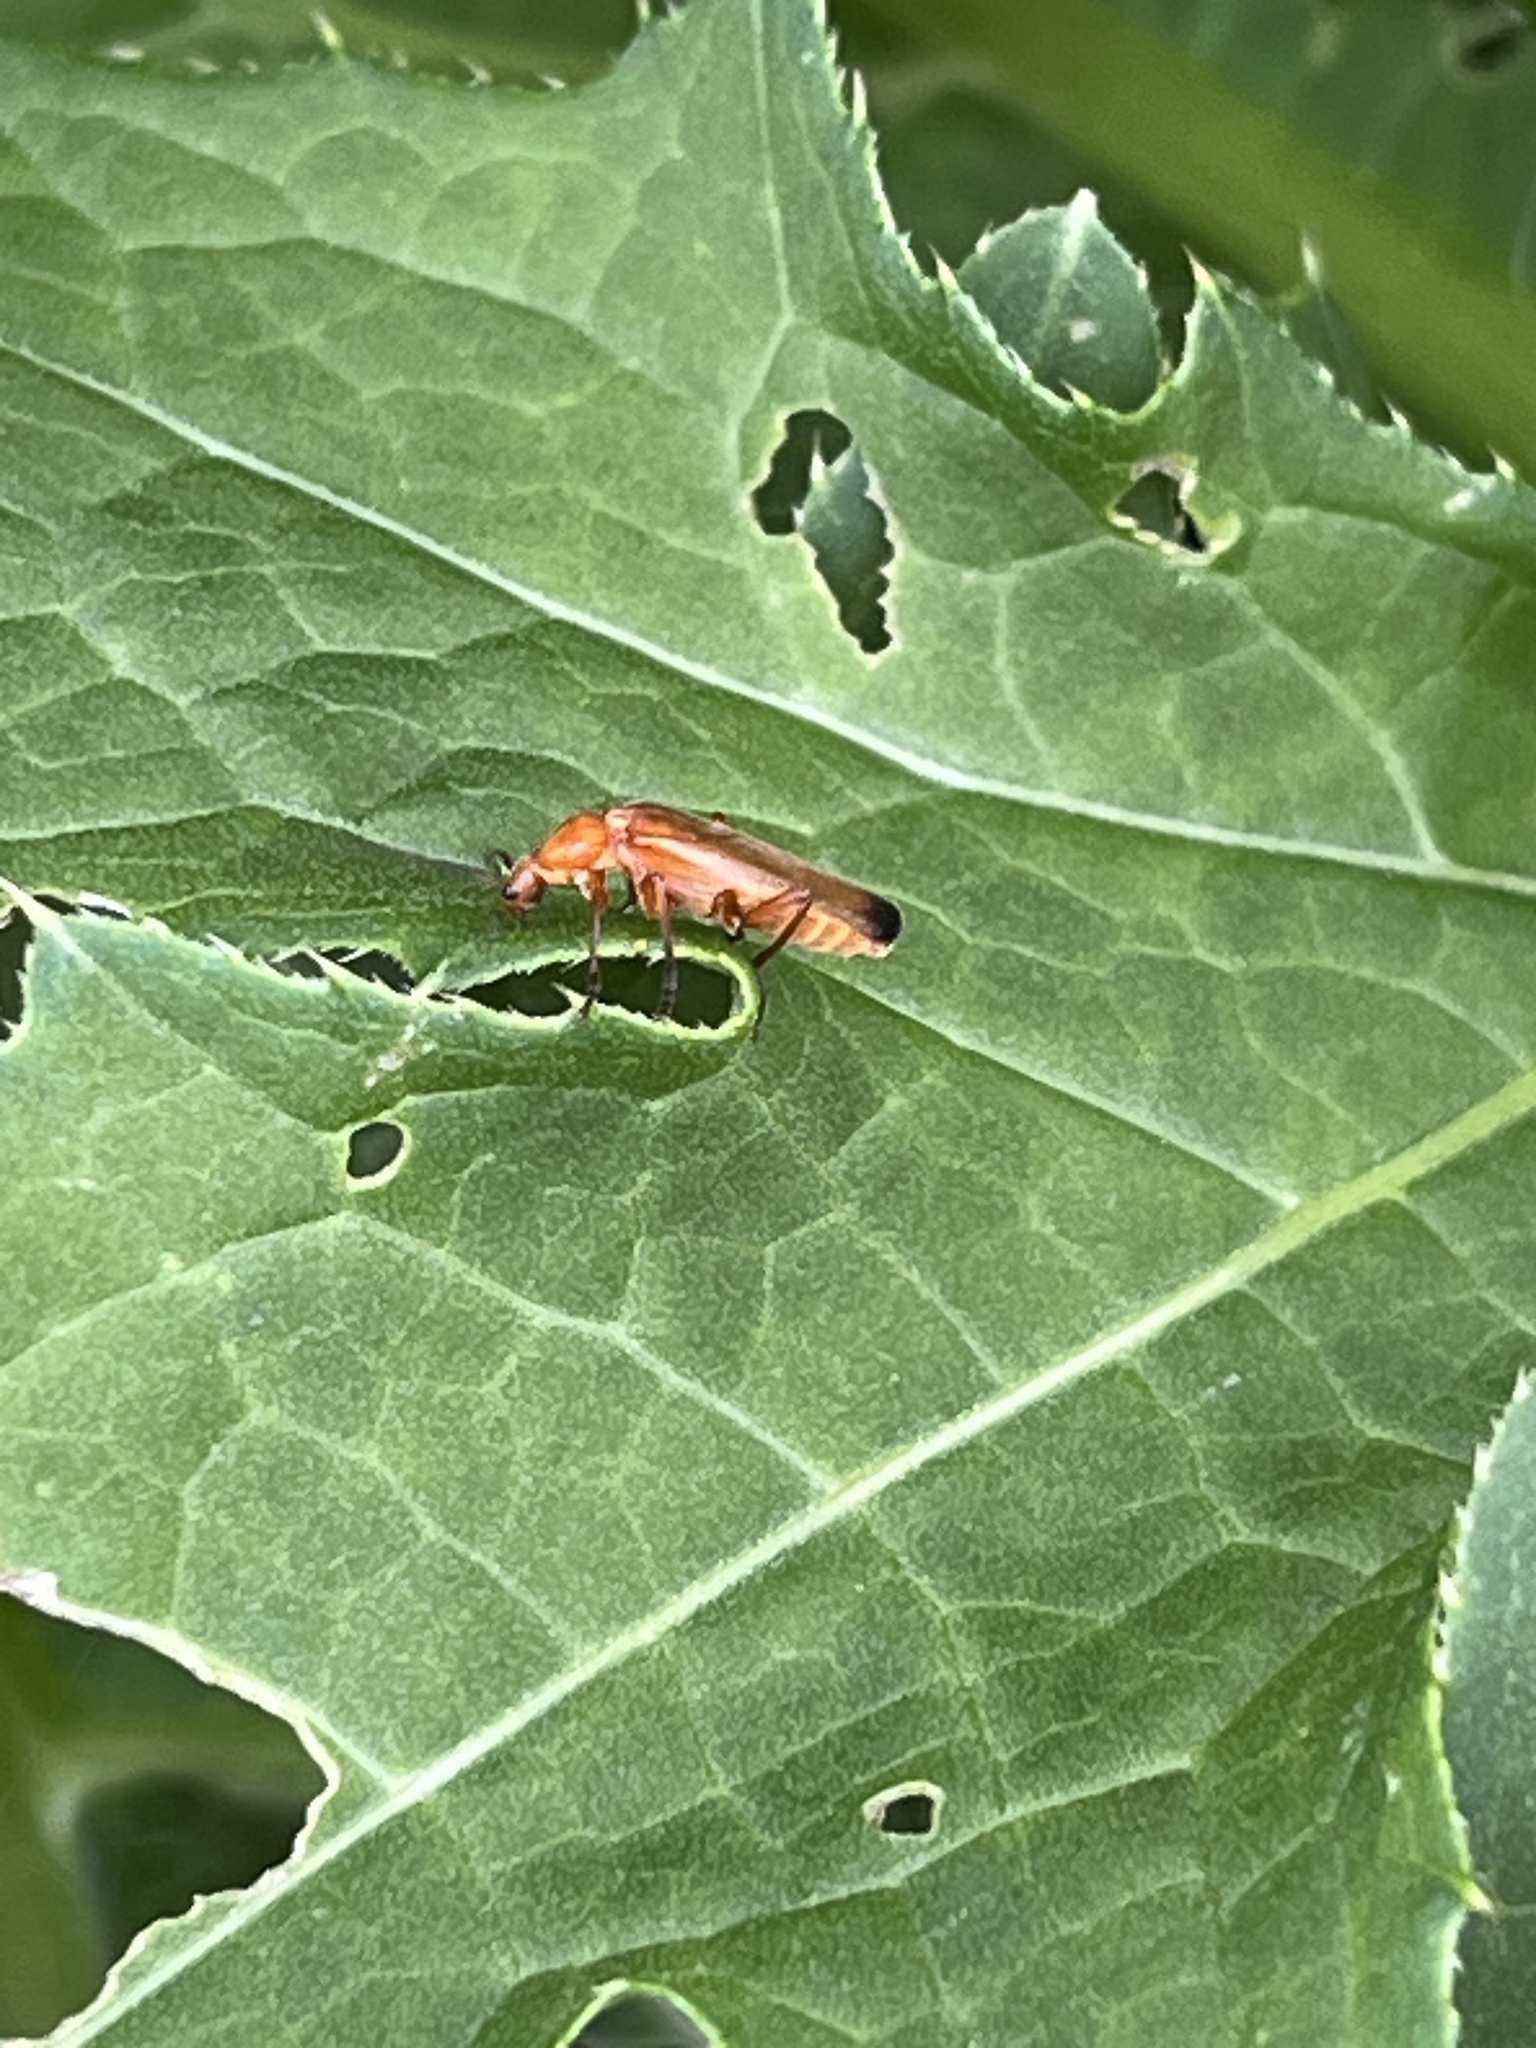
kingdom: Animalia
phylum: Arthropoda
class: Insecta
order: Coleoptera
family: Cantharidae
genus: Rhagonycha
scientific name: Rhagonycha fulva
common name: Common red soldier beetle
